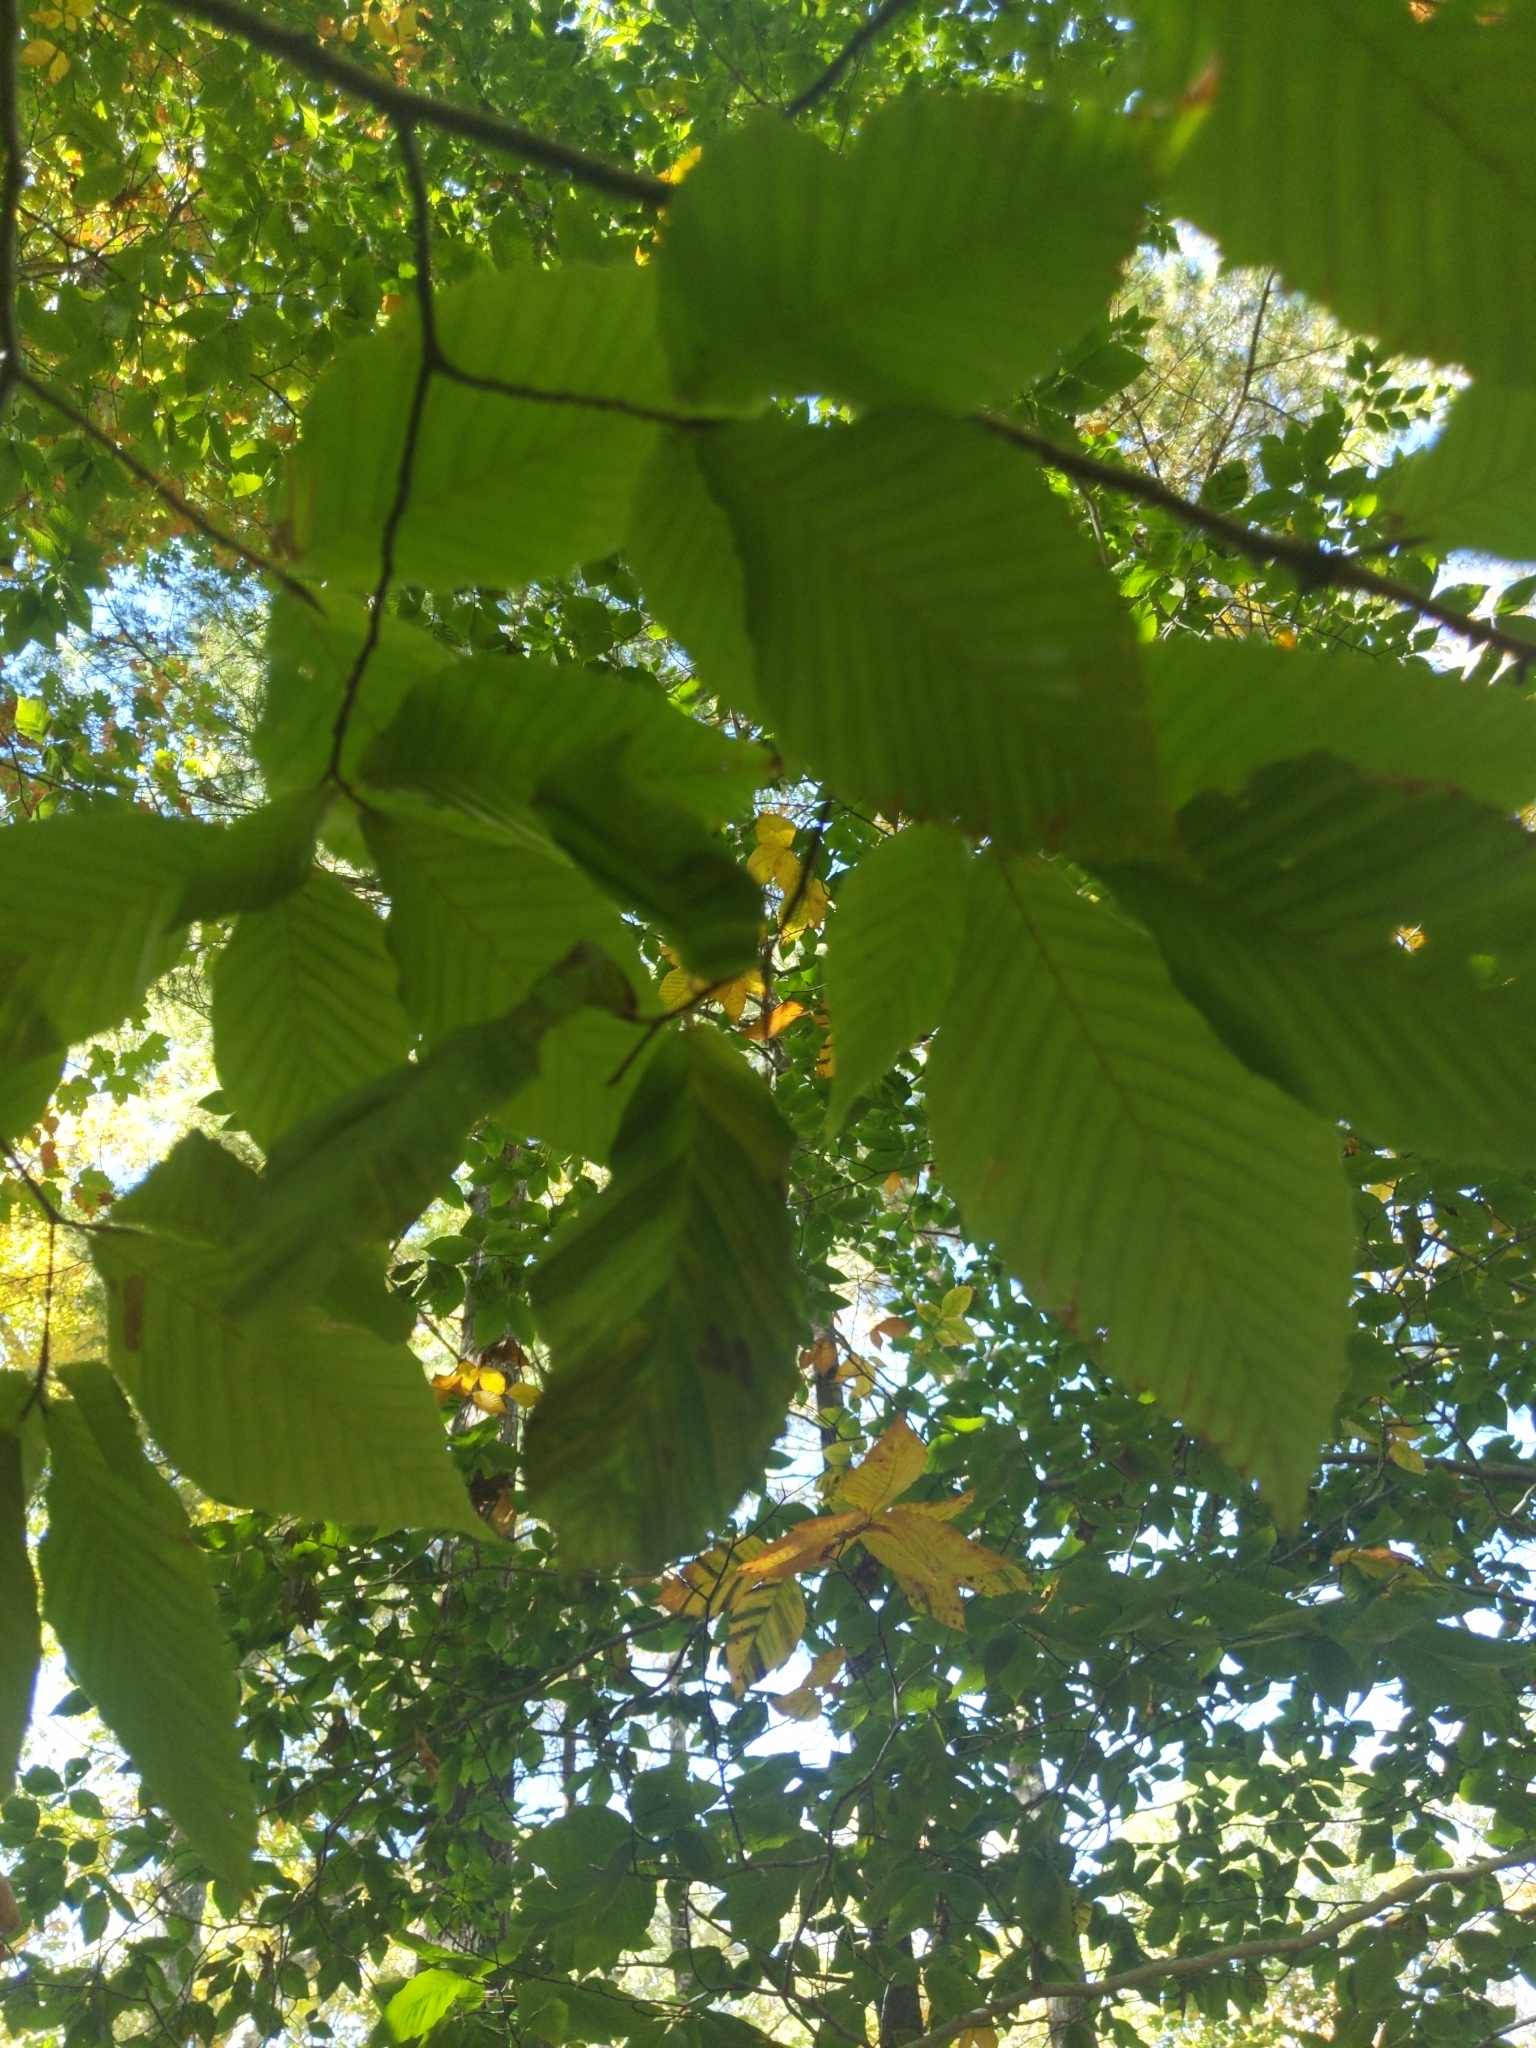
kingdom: Animalia
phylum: Nematoda
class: Chromadorea
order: Rhabditida
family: Anguinidae
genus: Litylenchus
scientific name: Litylenchus crenatae
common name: Beech leaf disease
